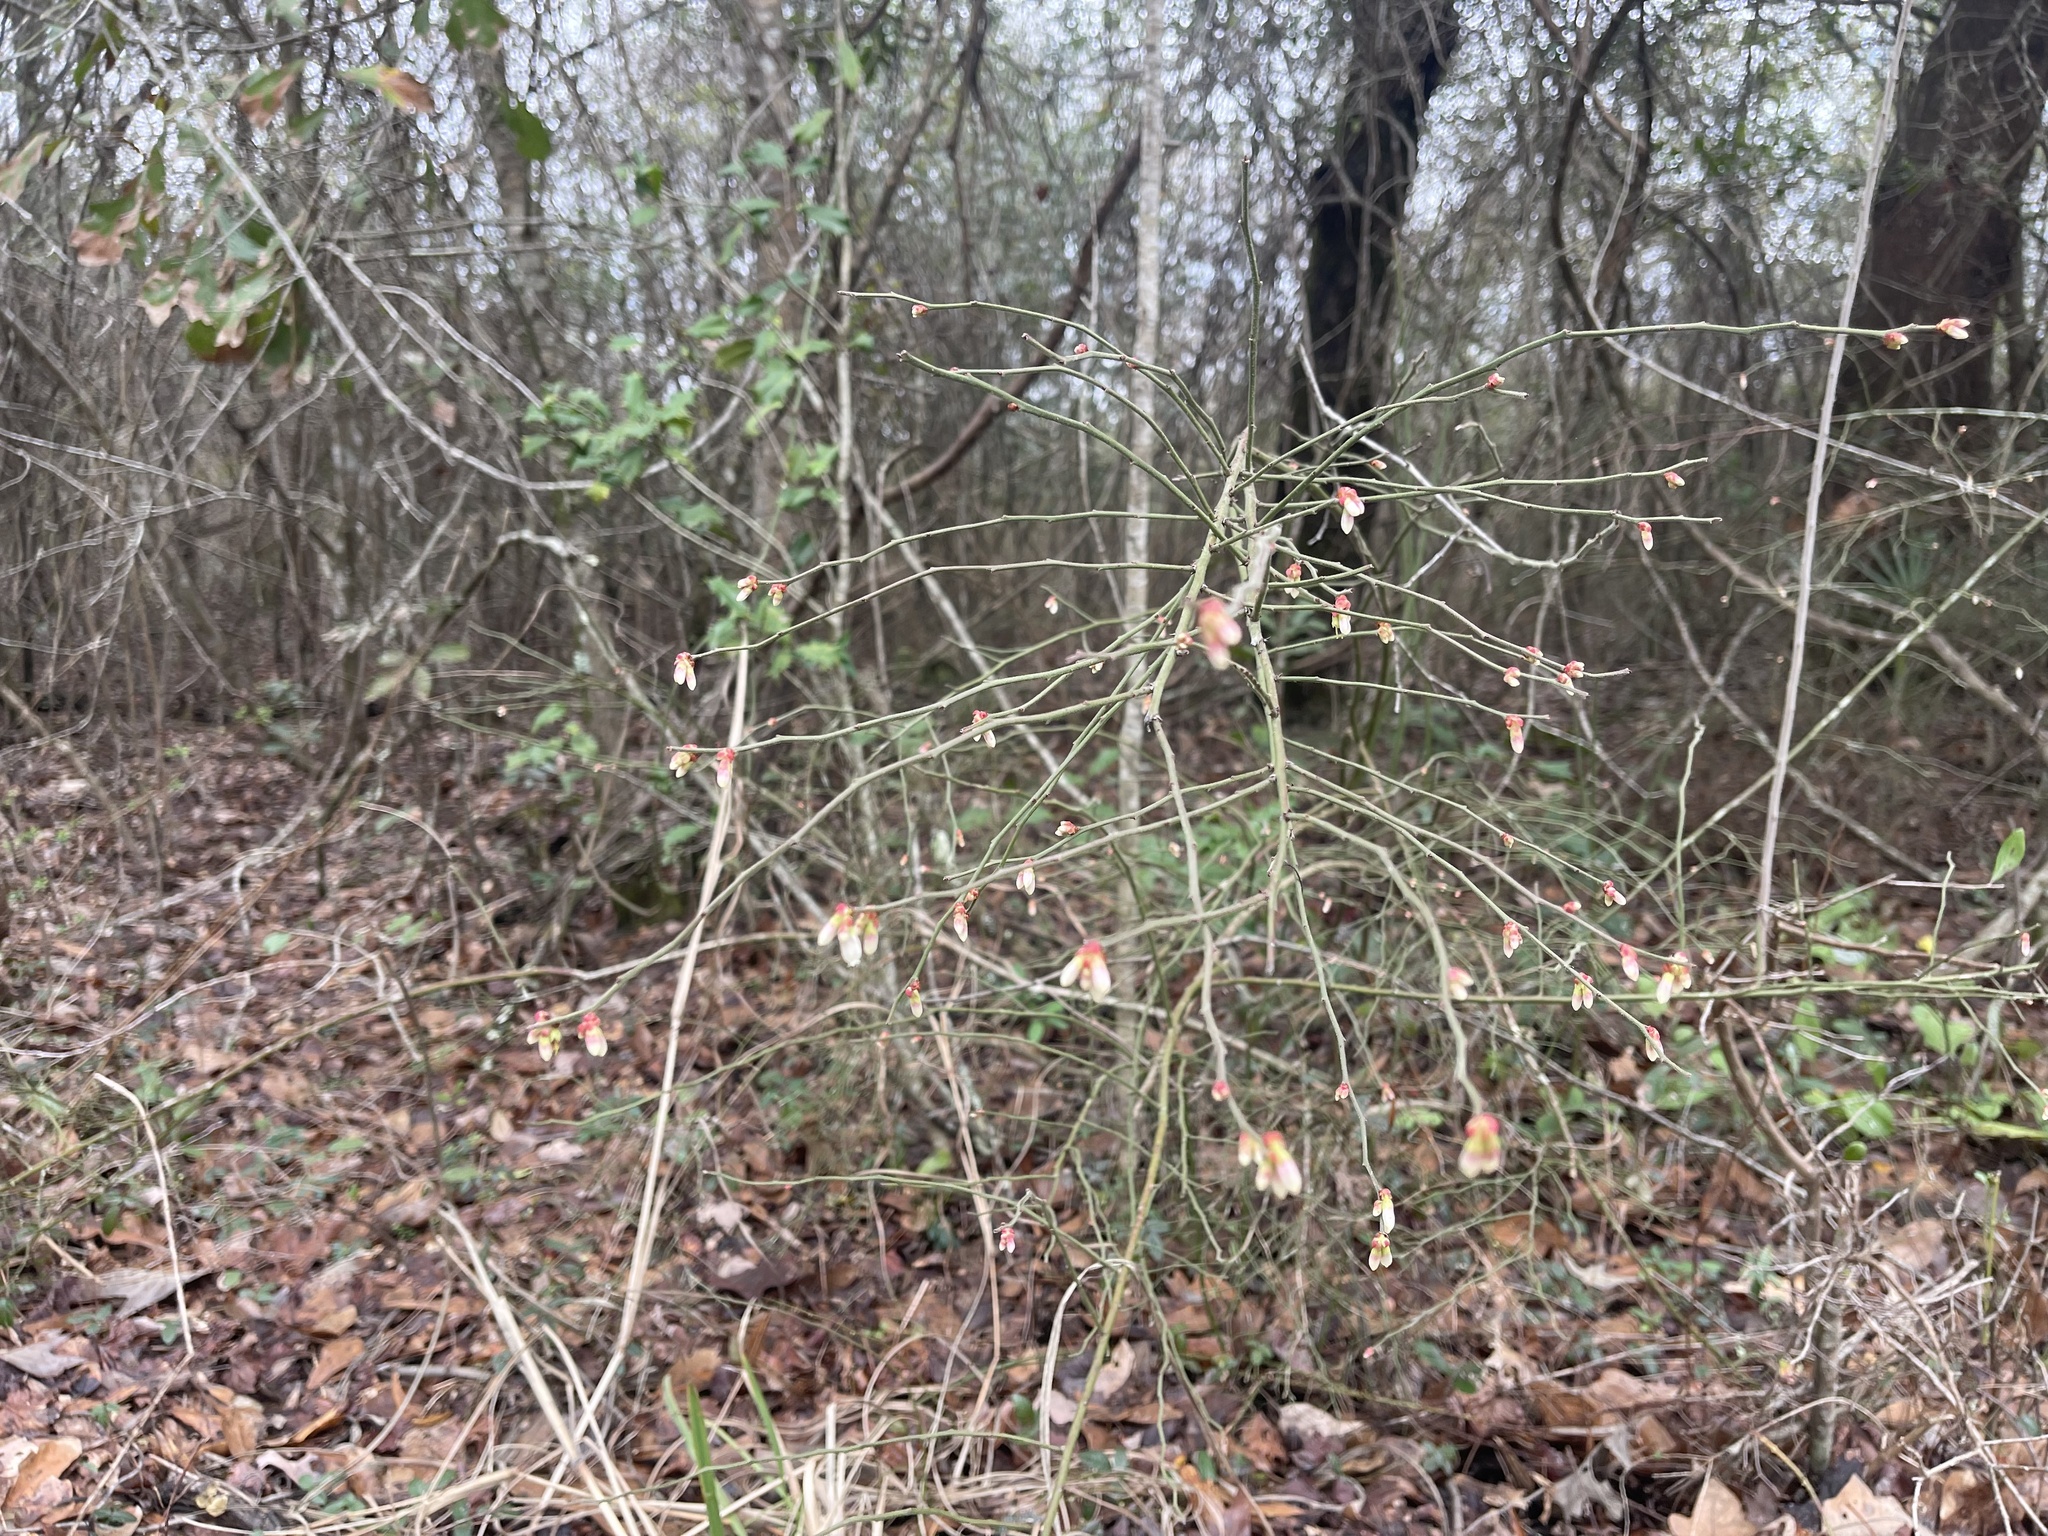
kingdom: Plantae
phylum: Tracheophyta
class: Magnoliopsida
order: Ericales
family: Ericaceae
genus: Vaccinium
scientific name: Vaccinium corymbosum
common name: Blueberry
